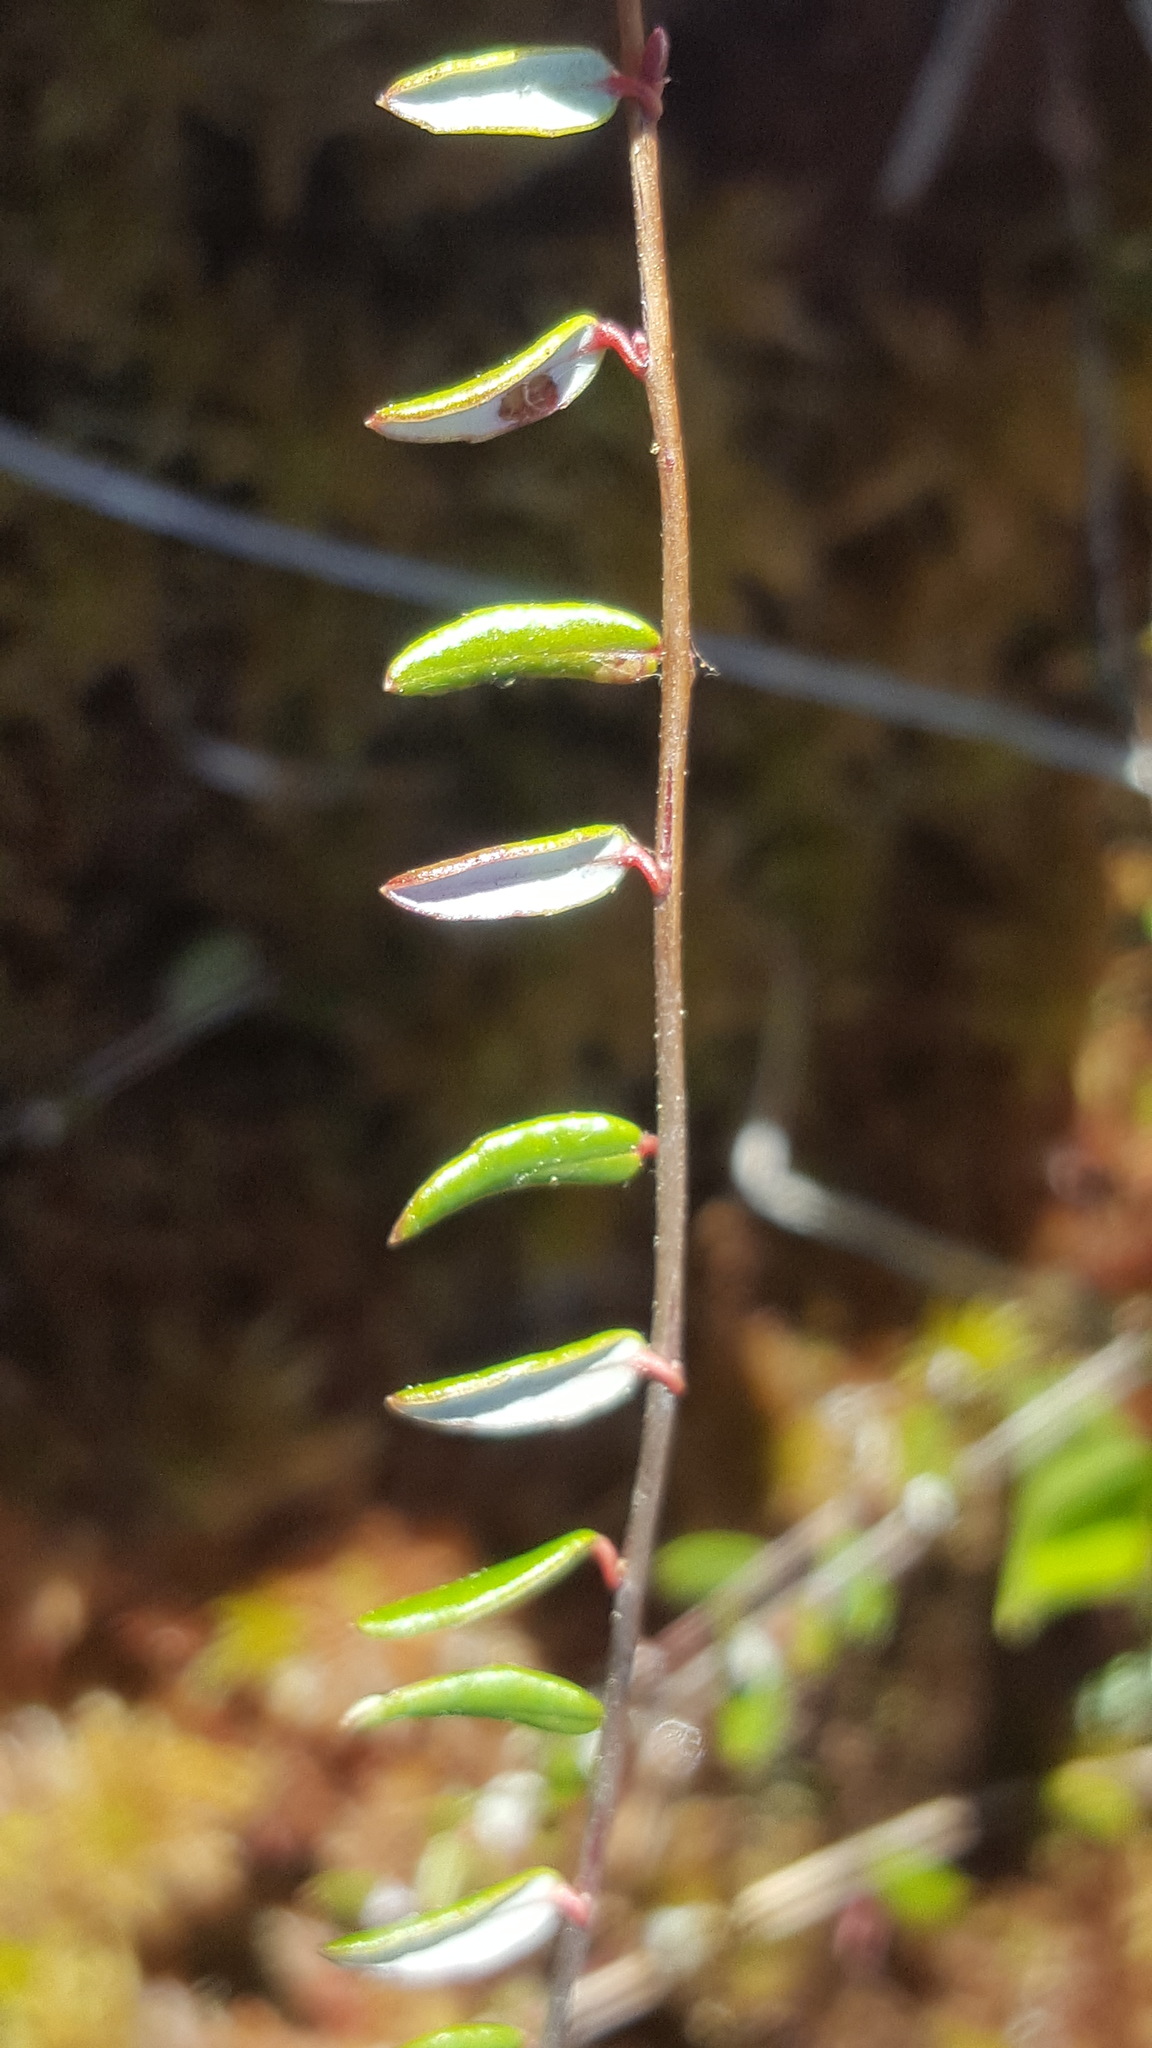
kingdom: Plantae
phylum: Tracheophyta
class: Magnoliopsida
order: Ericales
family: Ericaceae
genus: Vaccinium
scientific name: Vaccinium oxycoccos
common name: Cranberry
